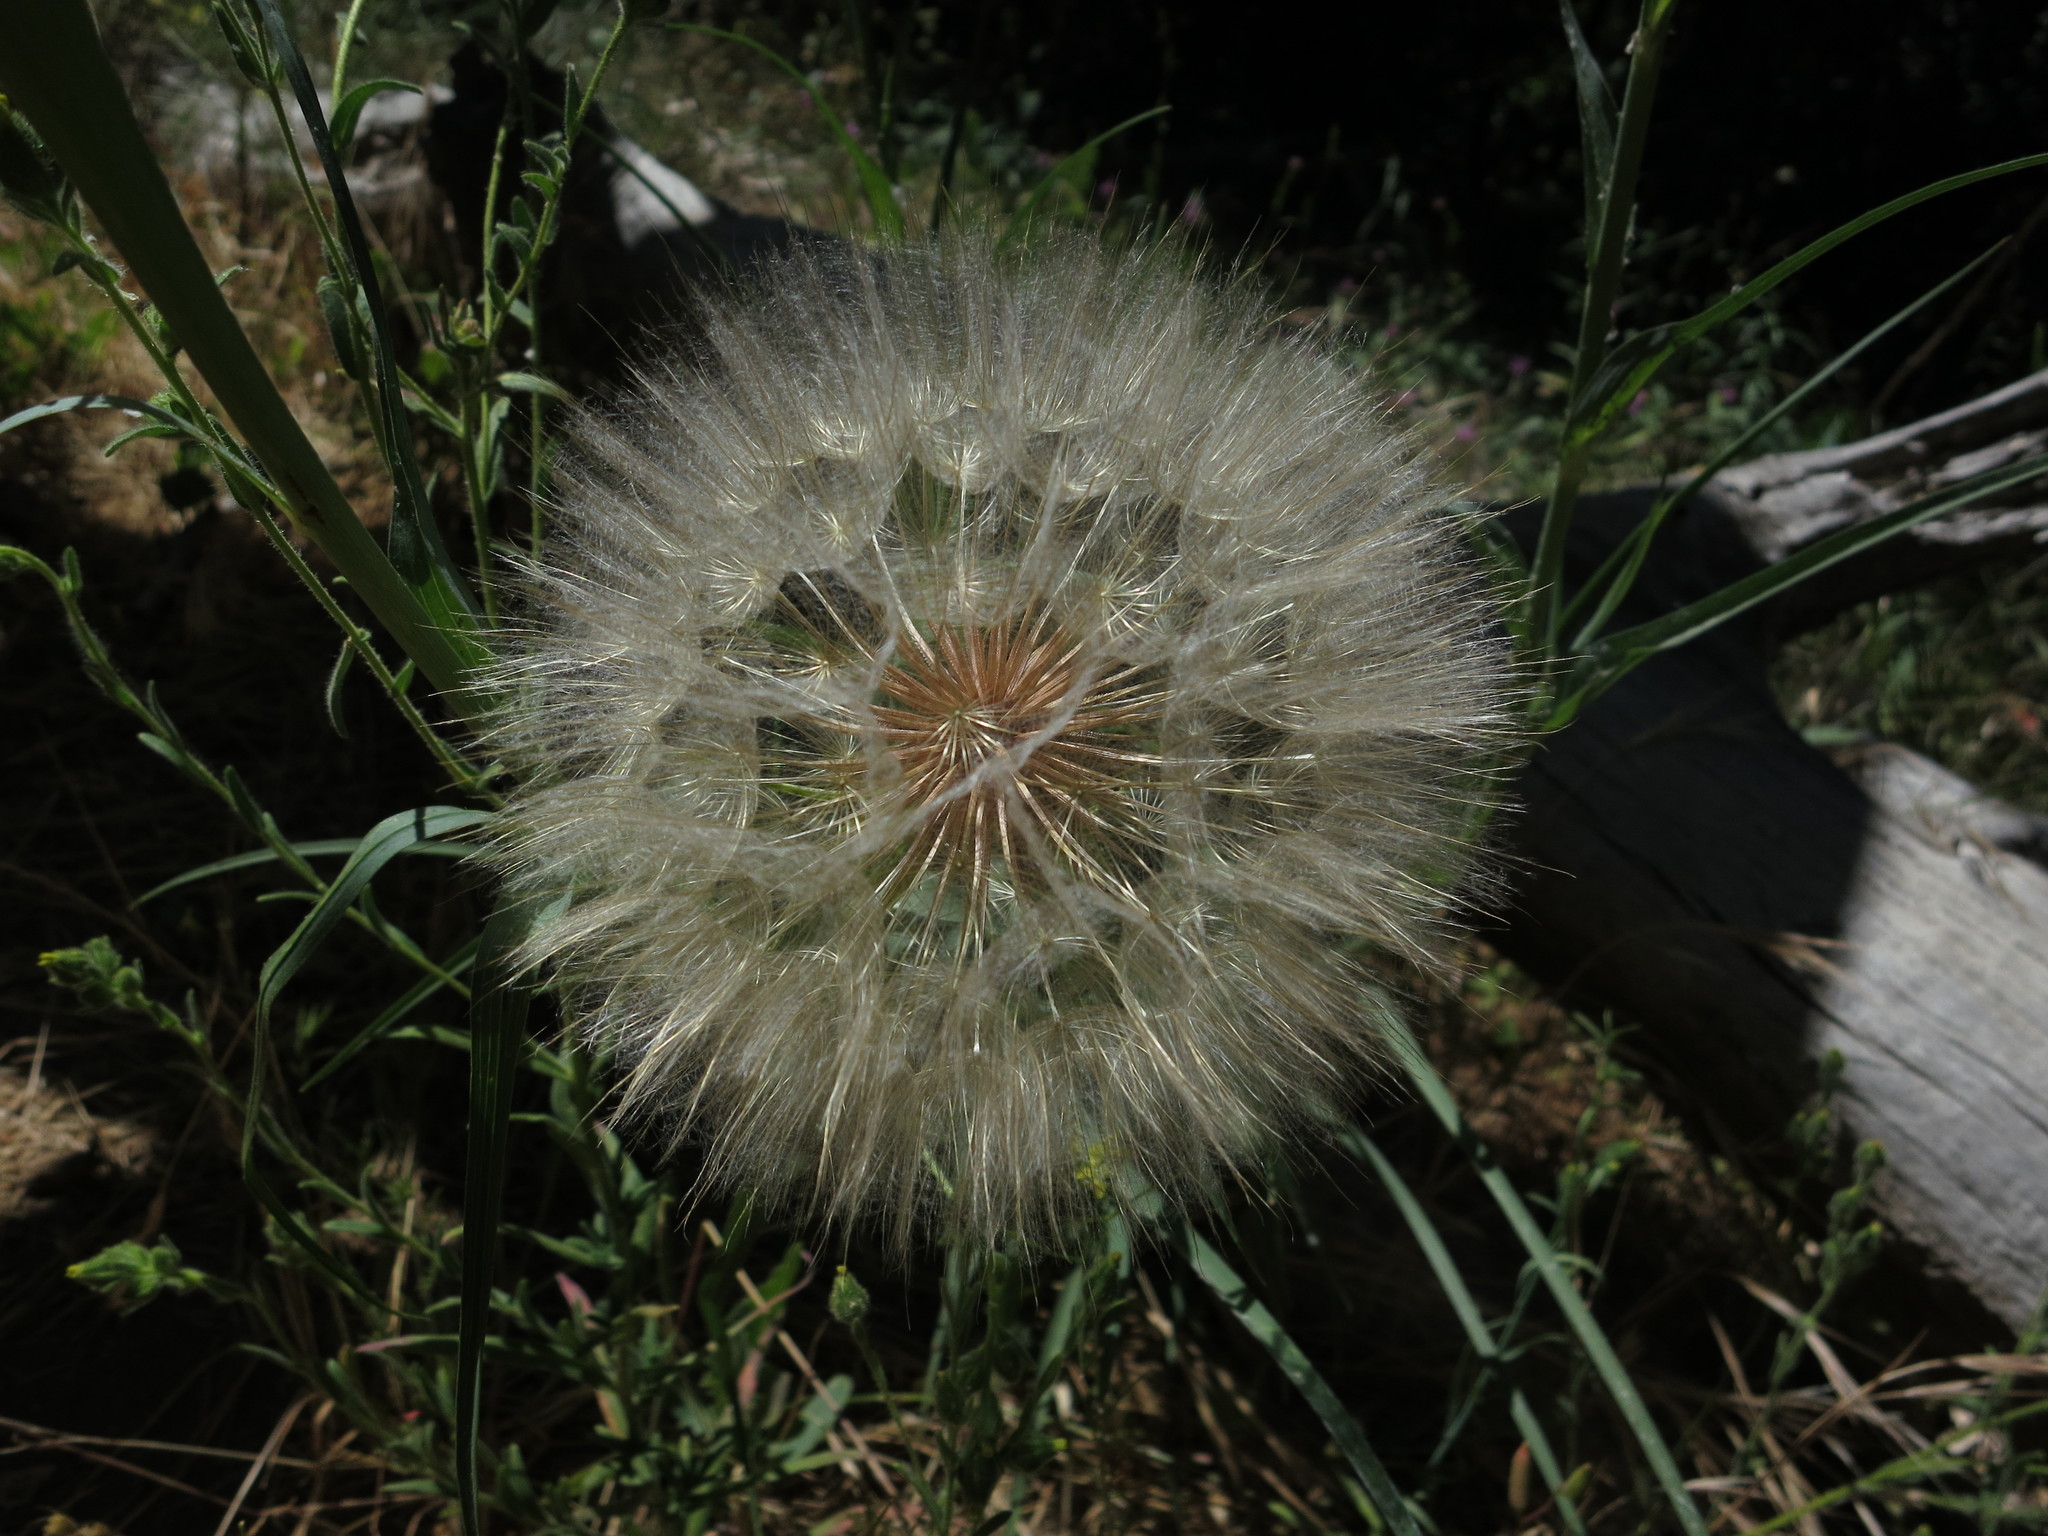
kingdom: Plantae
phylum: Tracheophyta
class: Magnoliopsida
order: Asterales
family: Asteraceae
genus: Tragopogon
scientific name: Tragopogon dubius
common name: Yellow salsify
